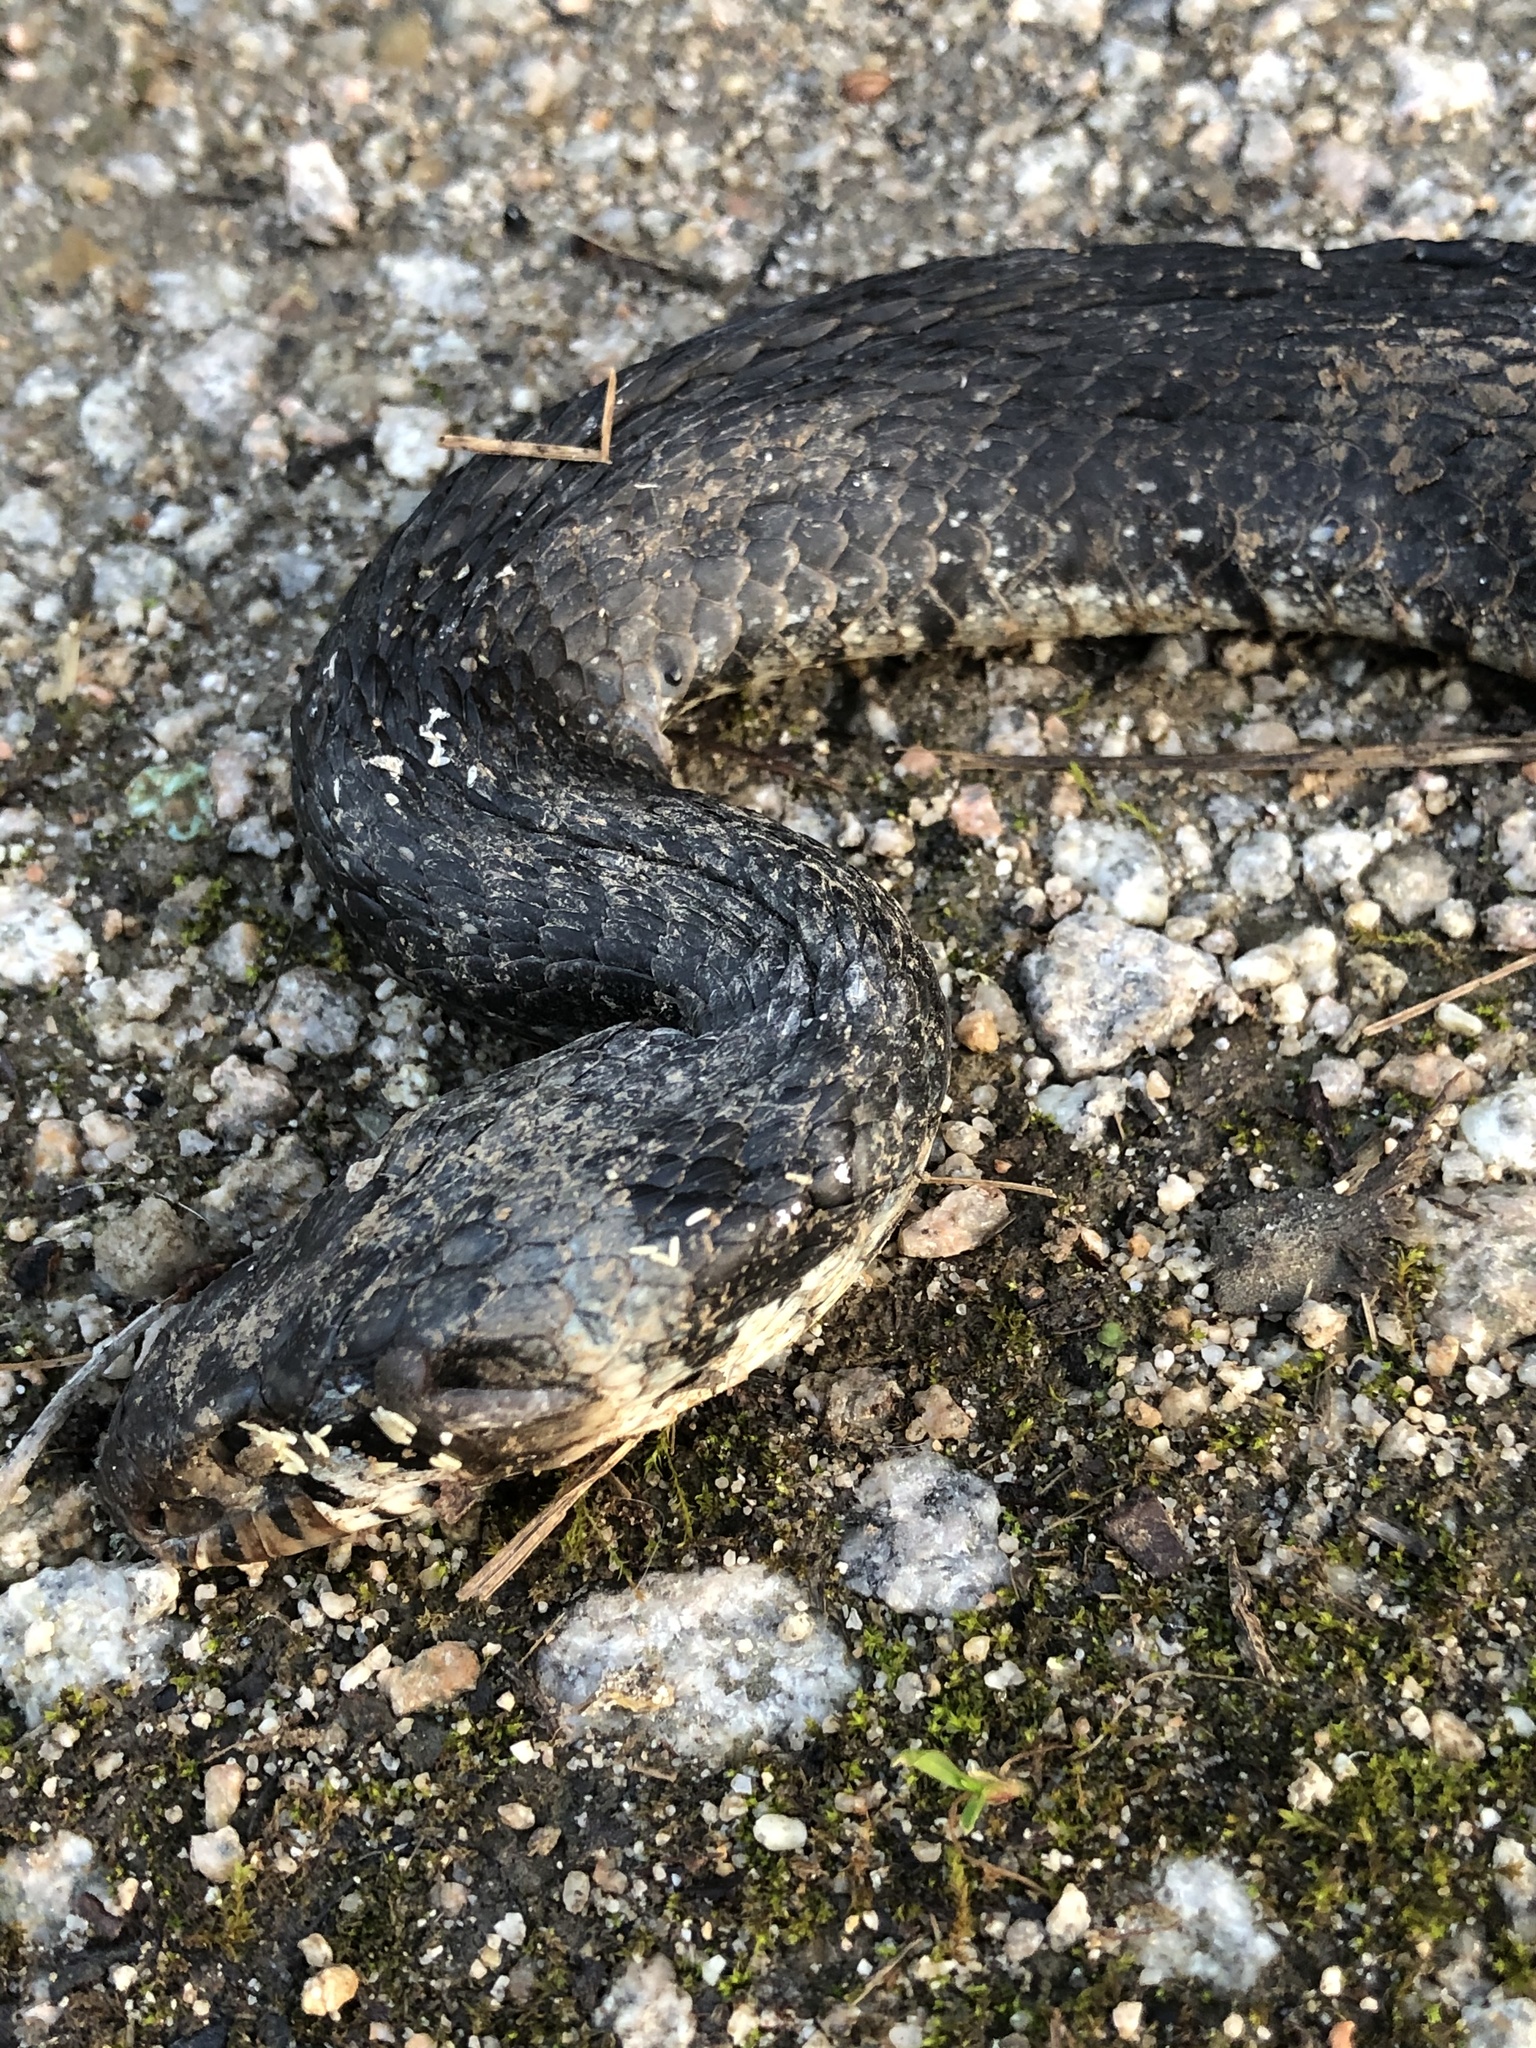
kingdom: Animalia
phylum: Chordata
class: Squamata
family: Colubridae
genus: Natrix
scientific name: Natrix helvetica
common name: Banded grass snake
